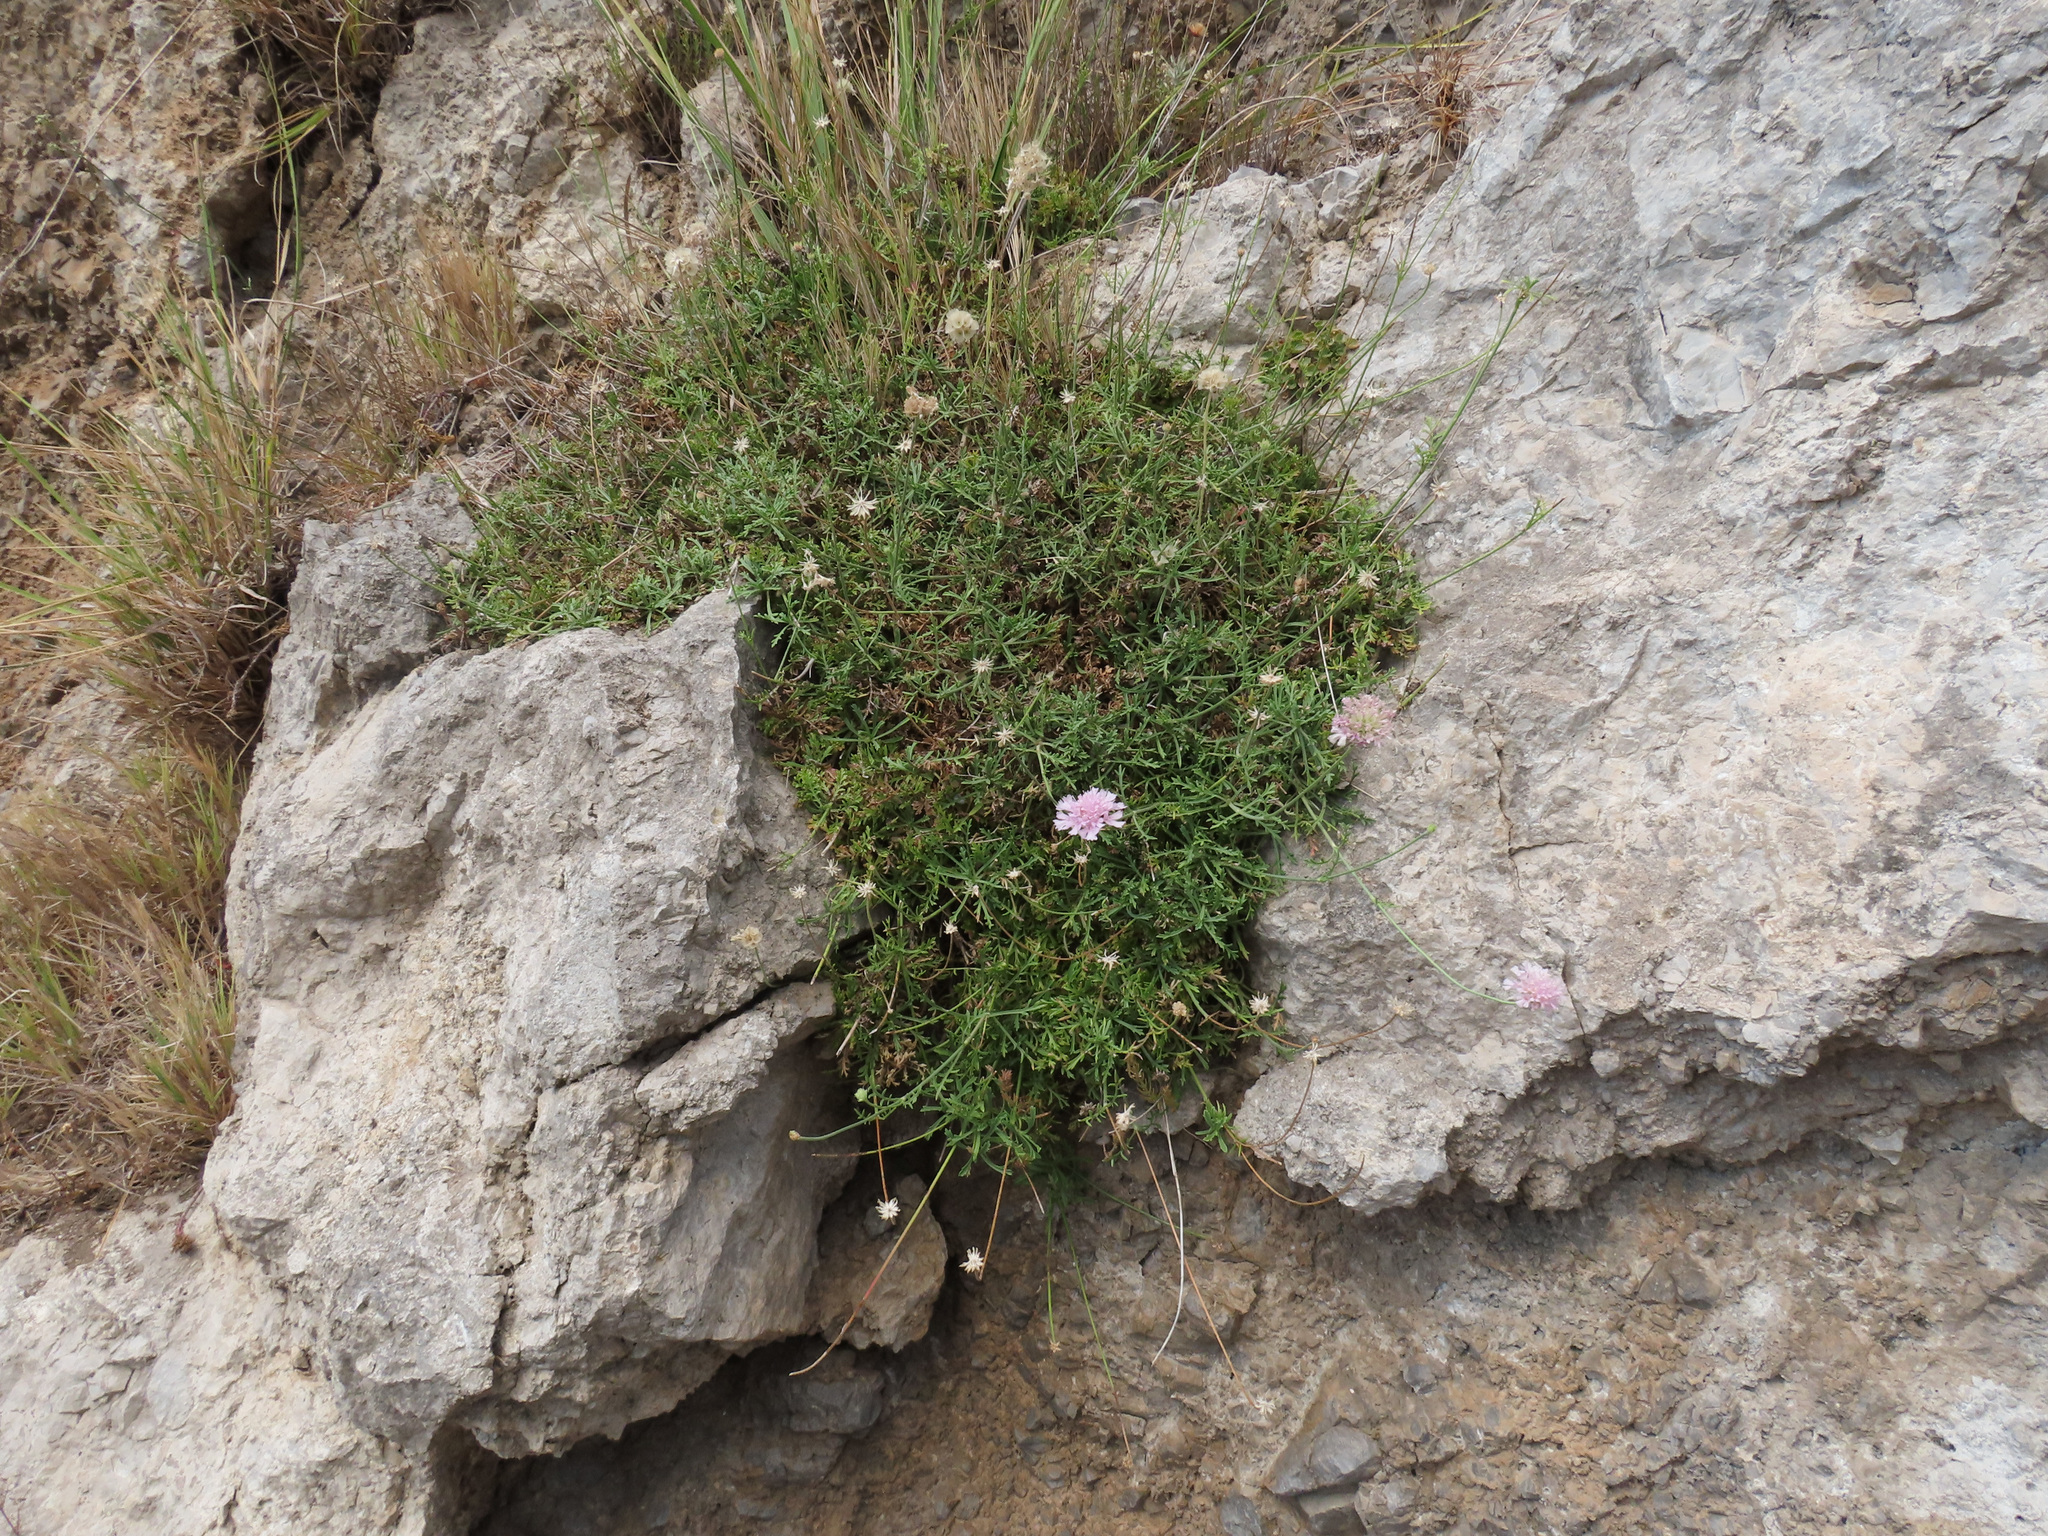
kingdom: Plantae
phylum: Tracheophyta
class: Magnoliopsida
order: Dipsacales
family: Caprifoliaceae
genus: Lomelosia
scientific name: Lomelosia crenata
